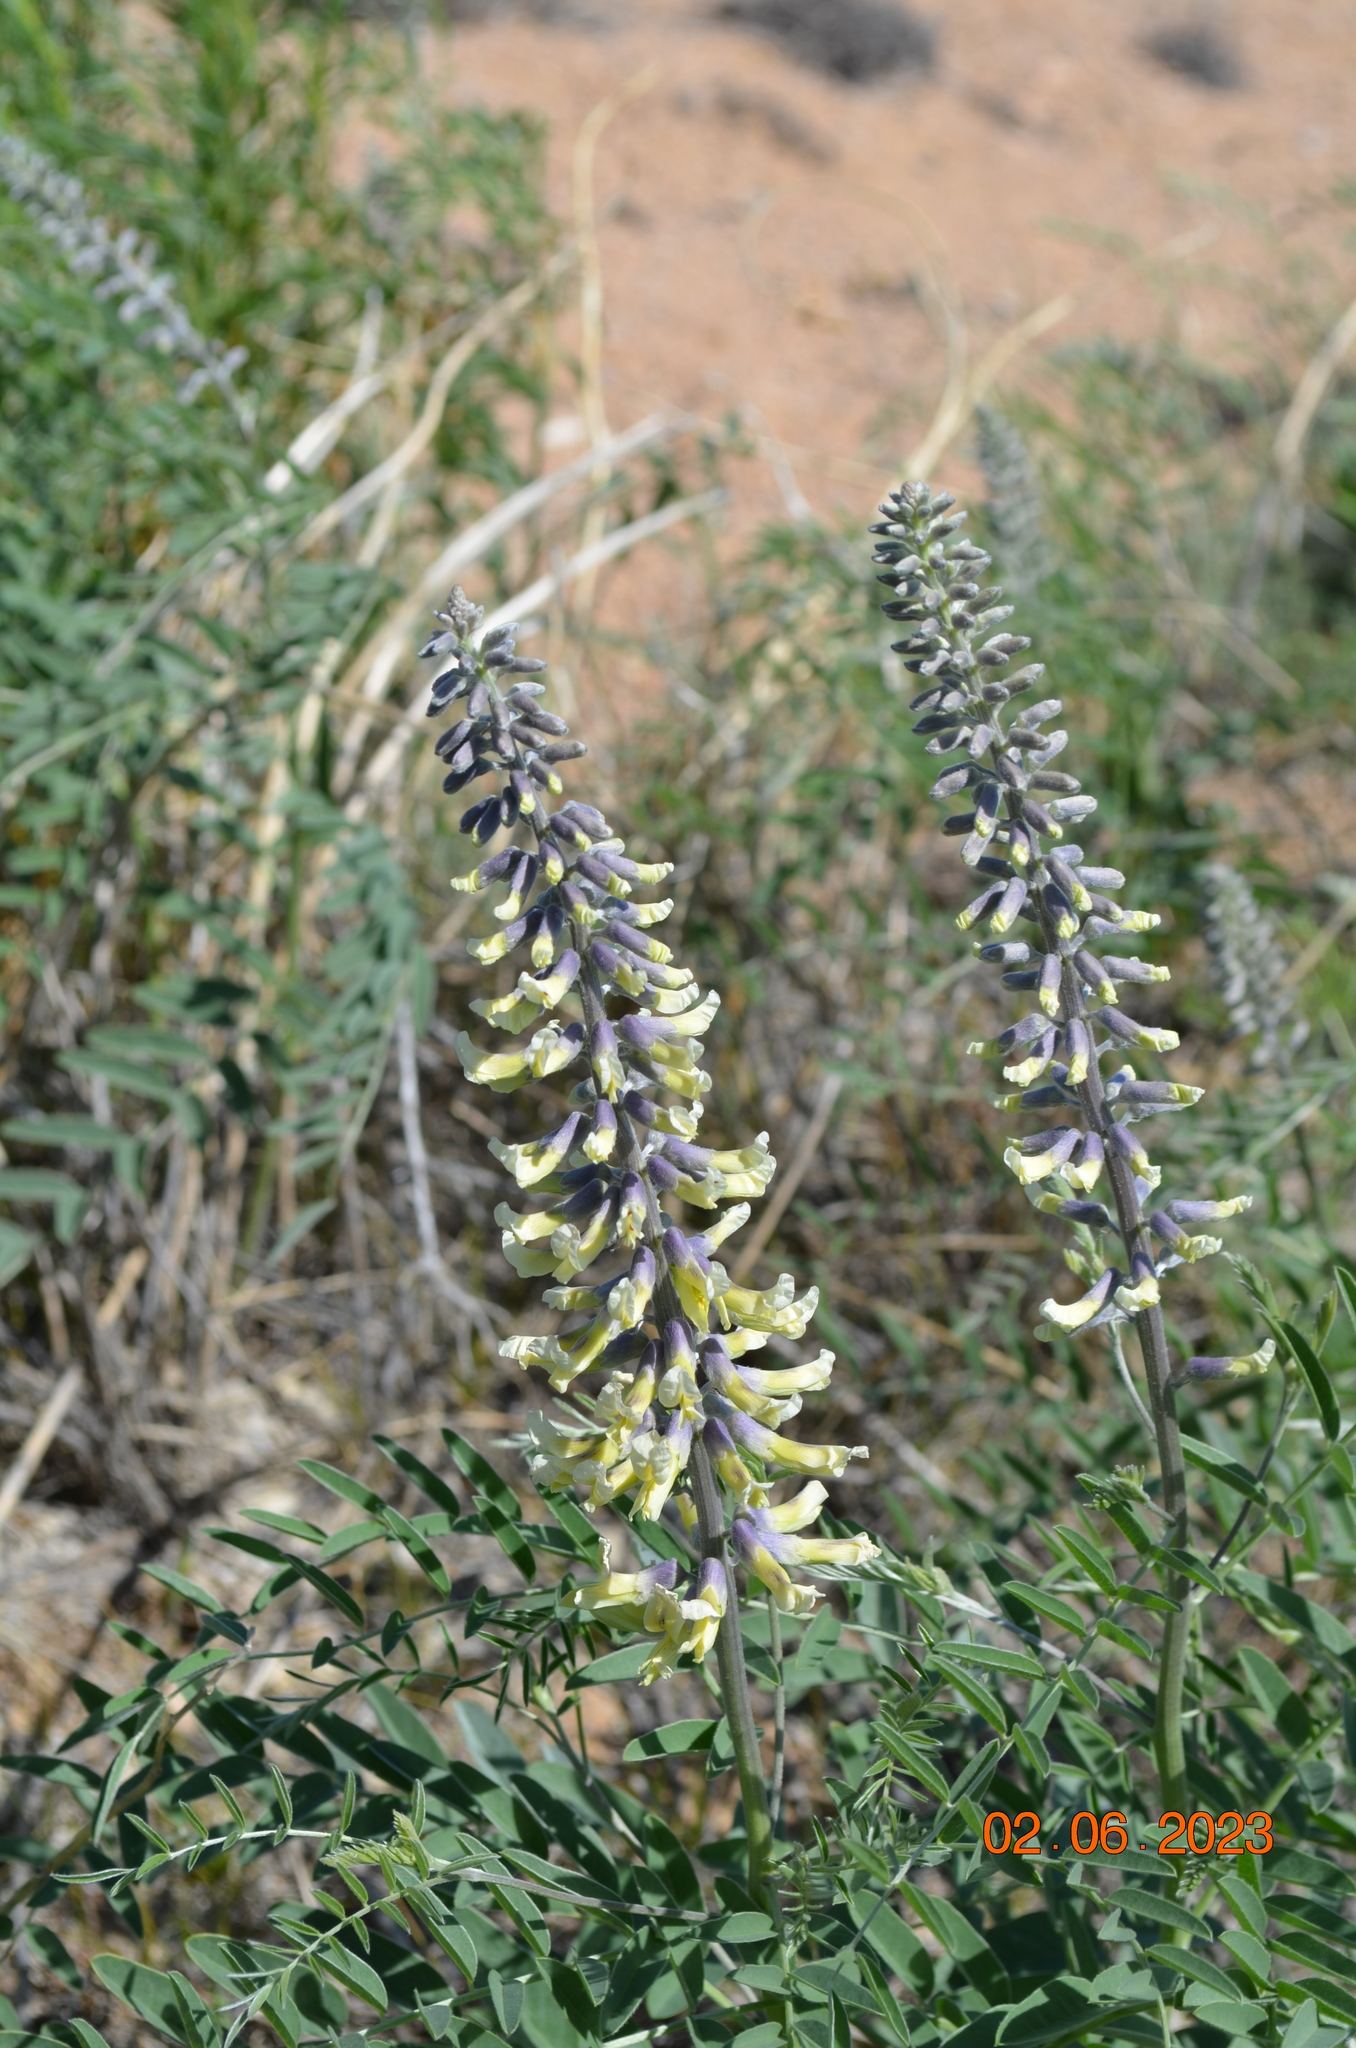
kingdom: Plantae
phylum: Tracheophyta
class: Magnoliopsida
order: Fabales
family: Fabaceae
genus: Sophora
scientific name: Sophora alopecuroides
